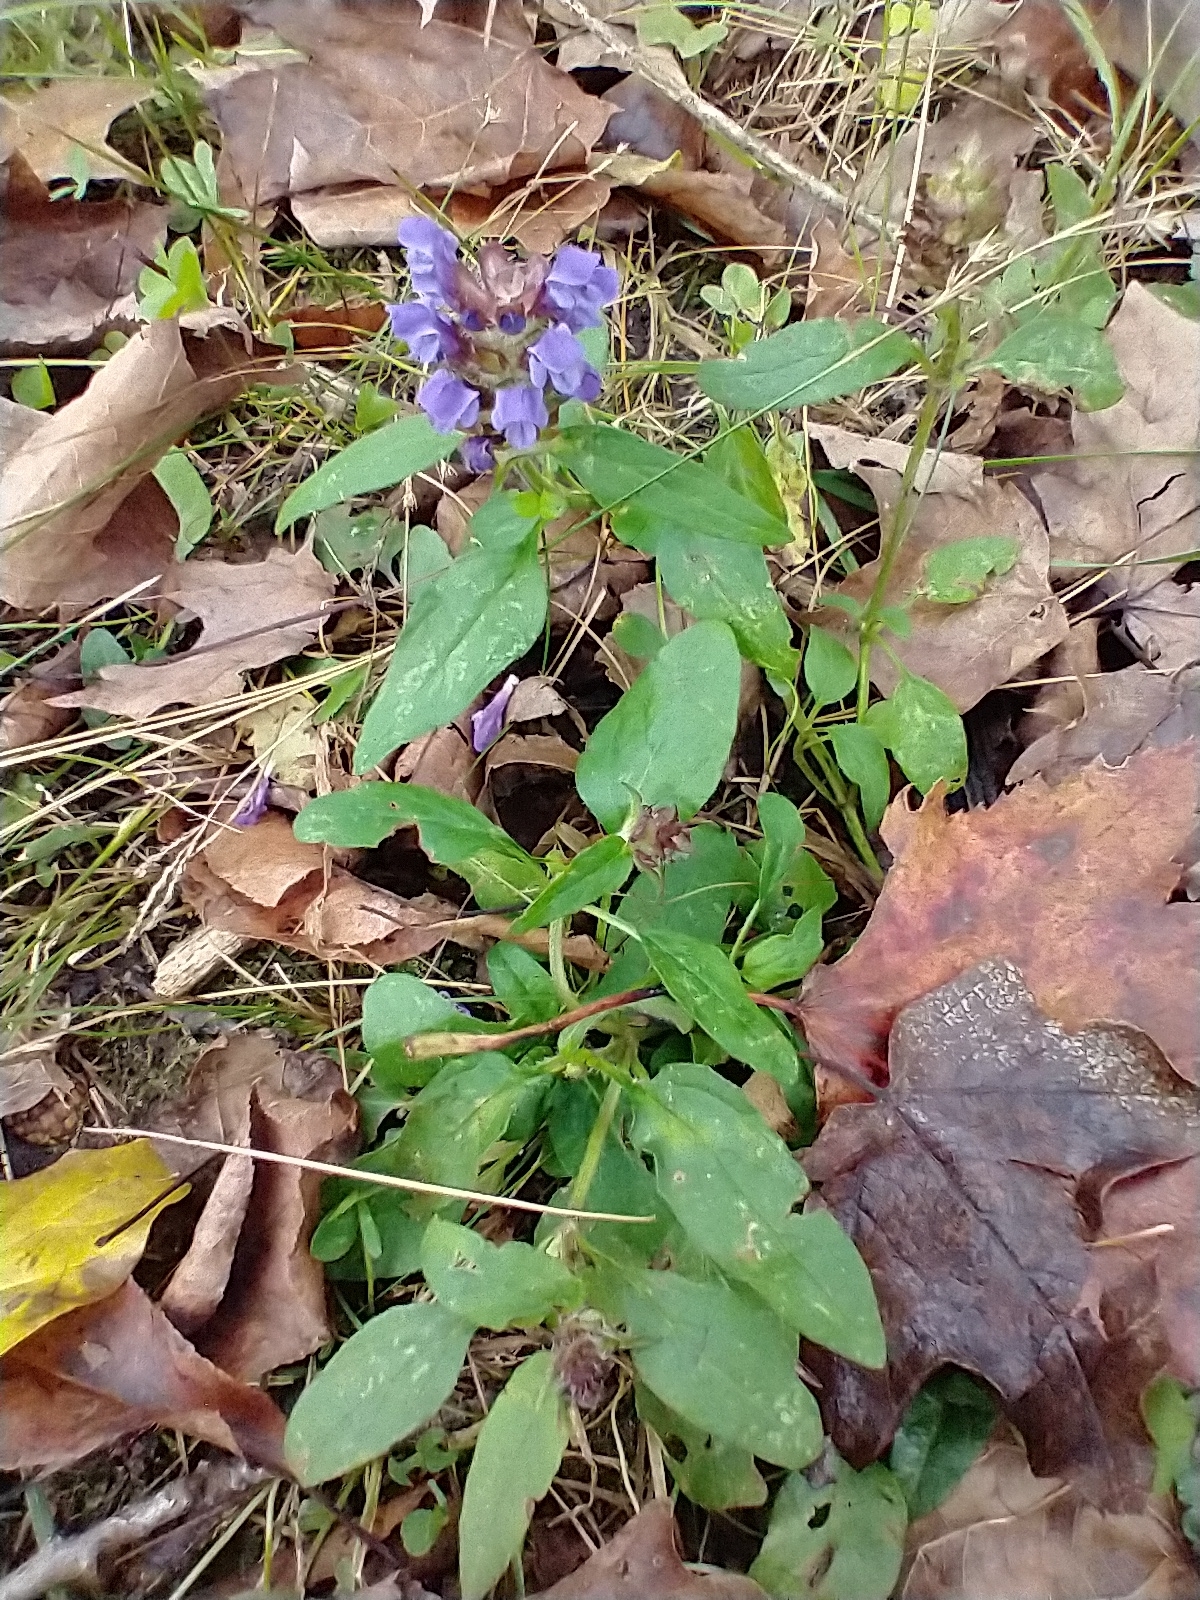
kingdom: Plantae
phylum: Tracheophyta
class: Magnoliopsida
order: Lamiales
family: Lamiaceae
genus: Prunella
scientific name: Prunella vulgaris
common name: Heal-all
